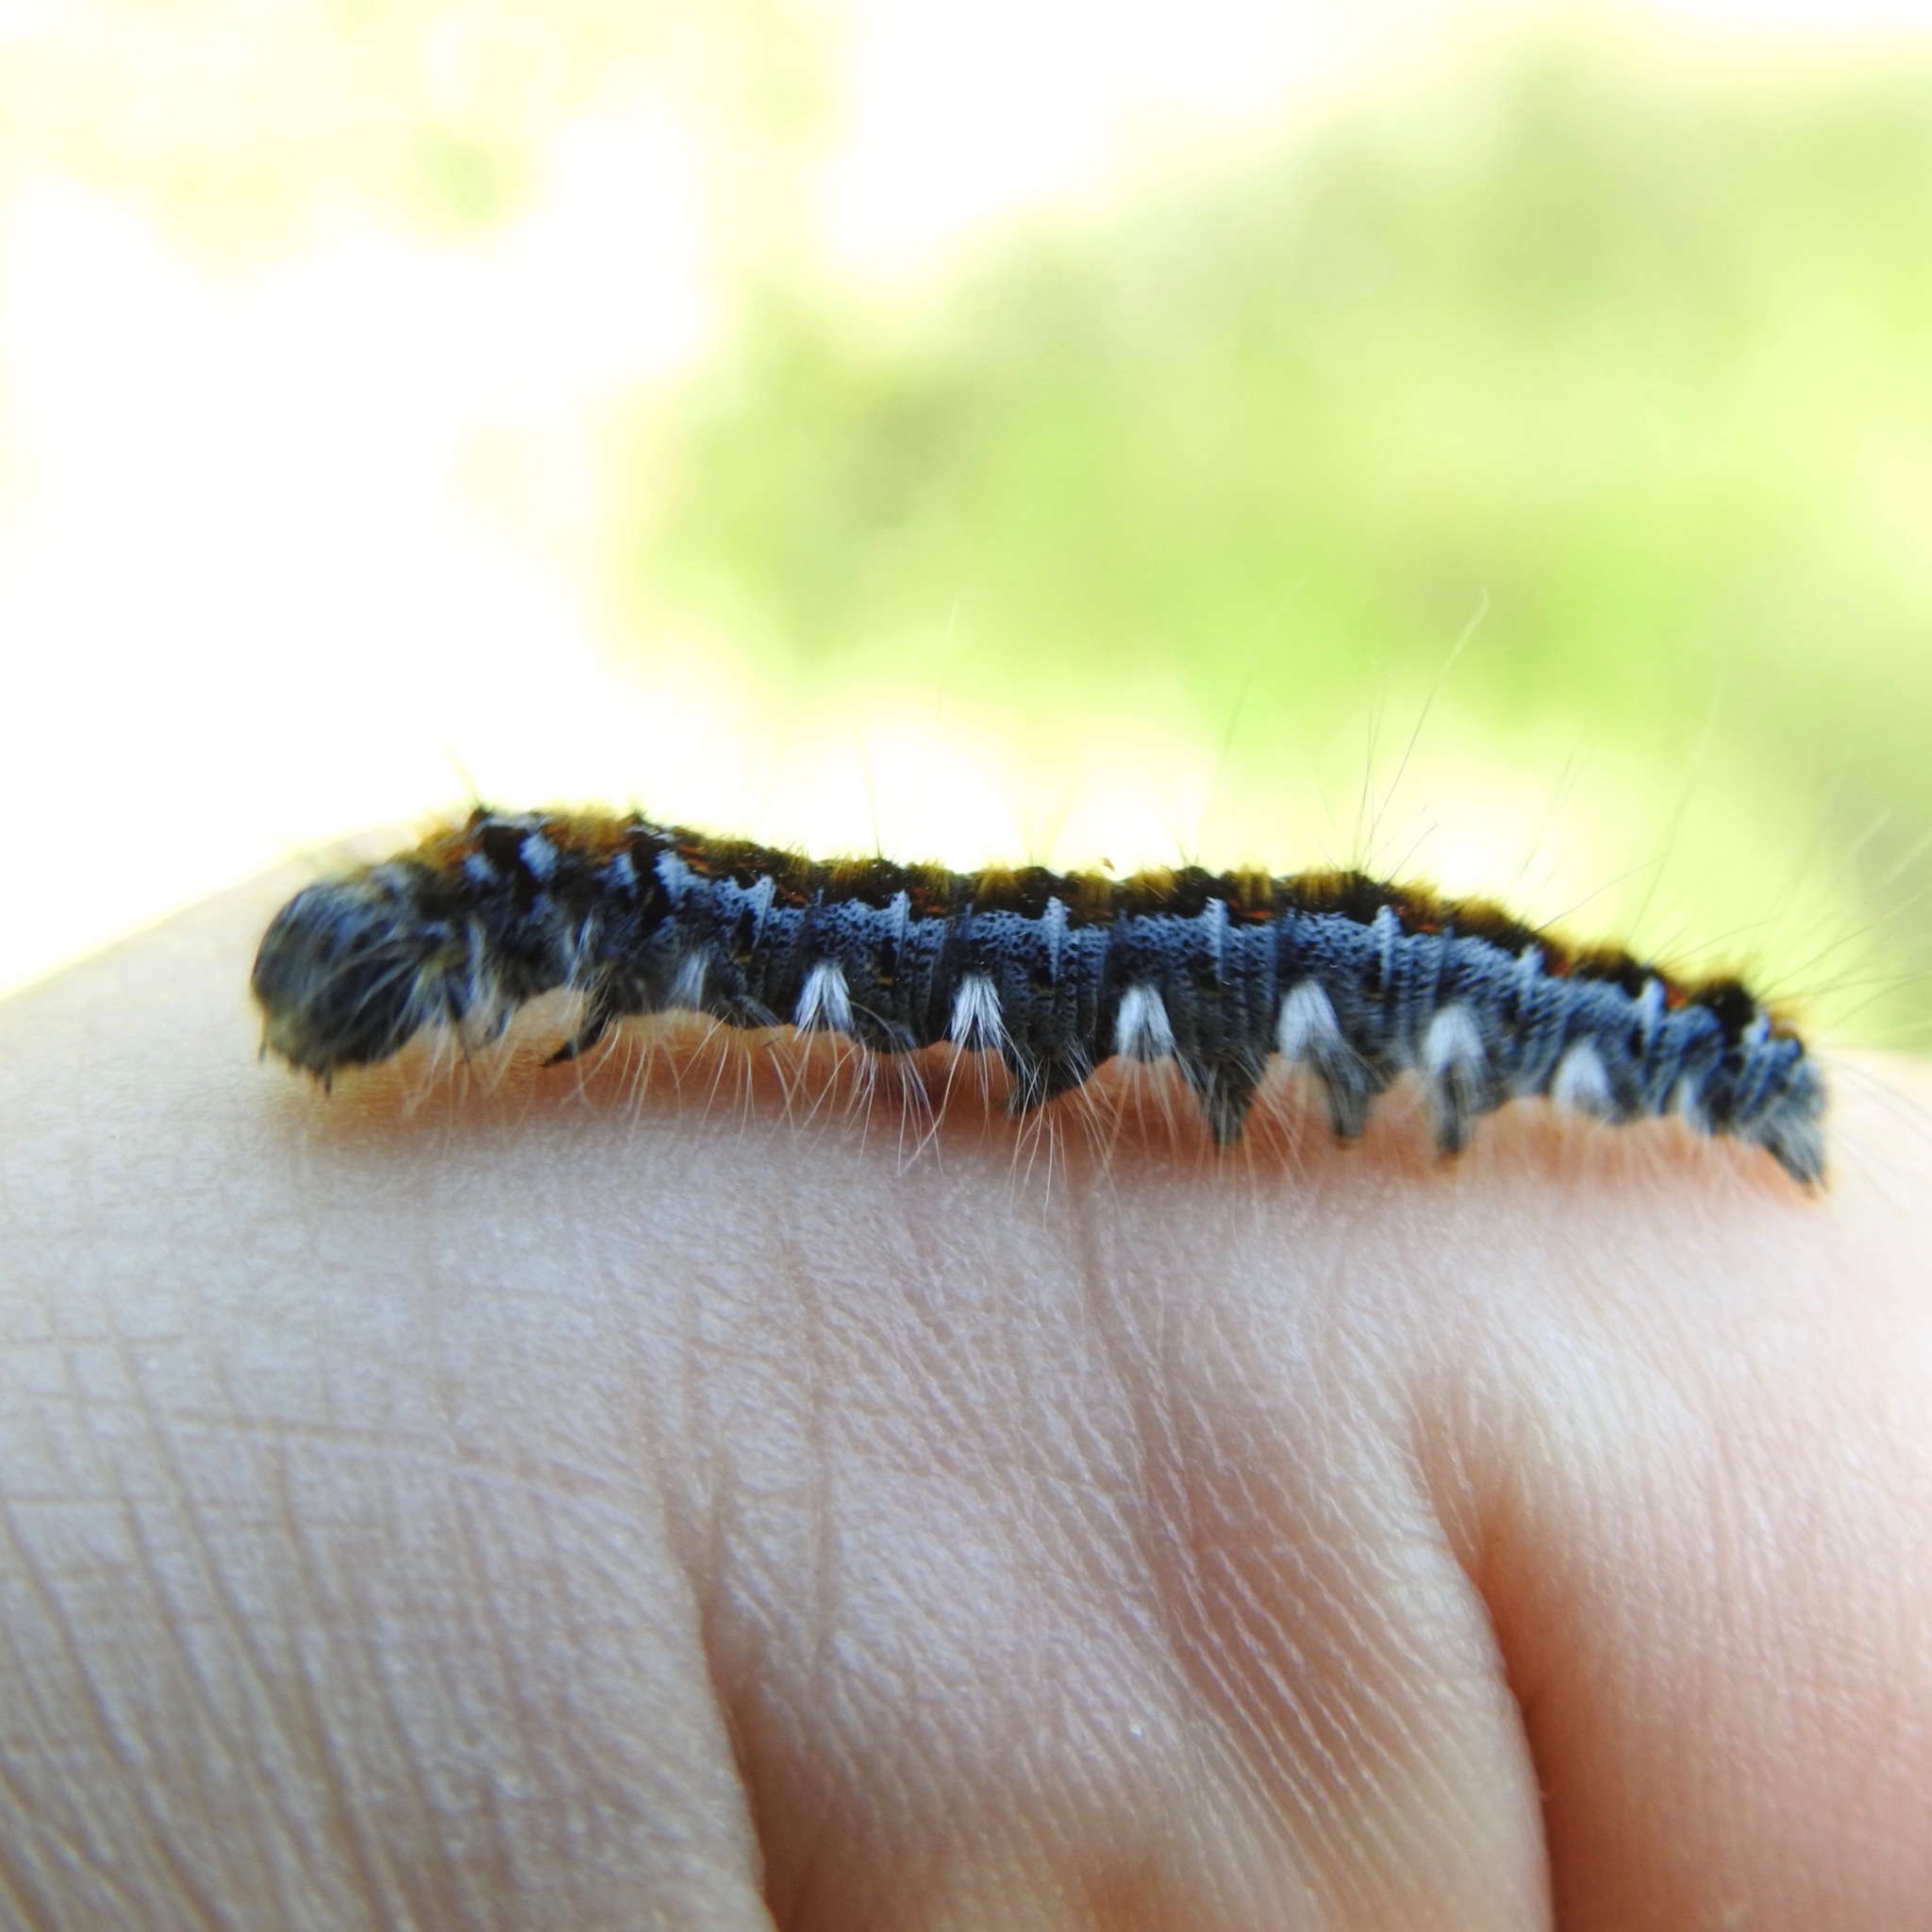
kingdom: Animalia
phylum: Arthropoda
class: Insecta
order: Lepidoptera
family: Lasiocampidae
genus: Malacosoma
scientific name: Malacosoma constricta
